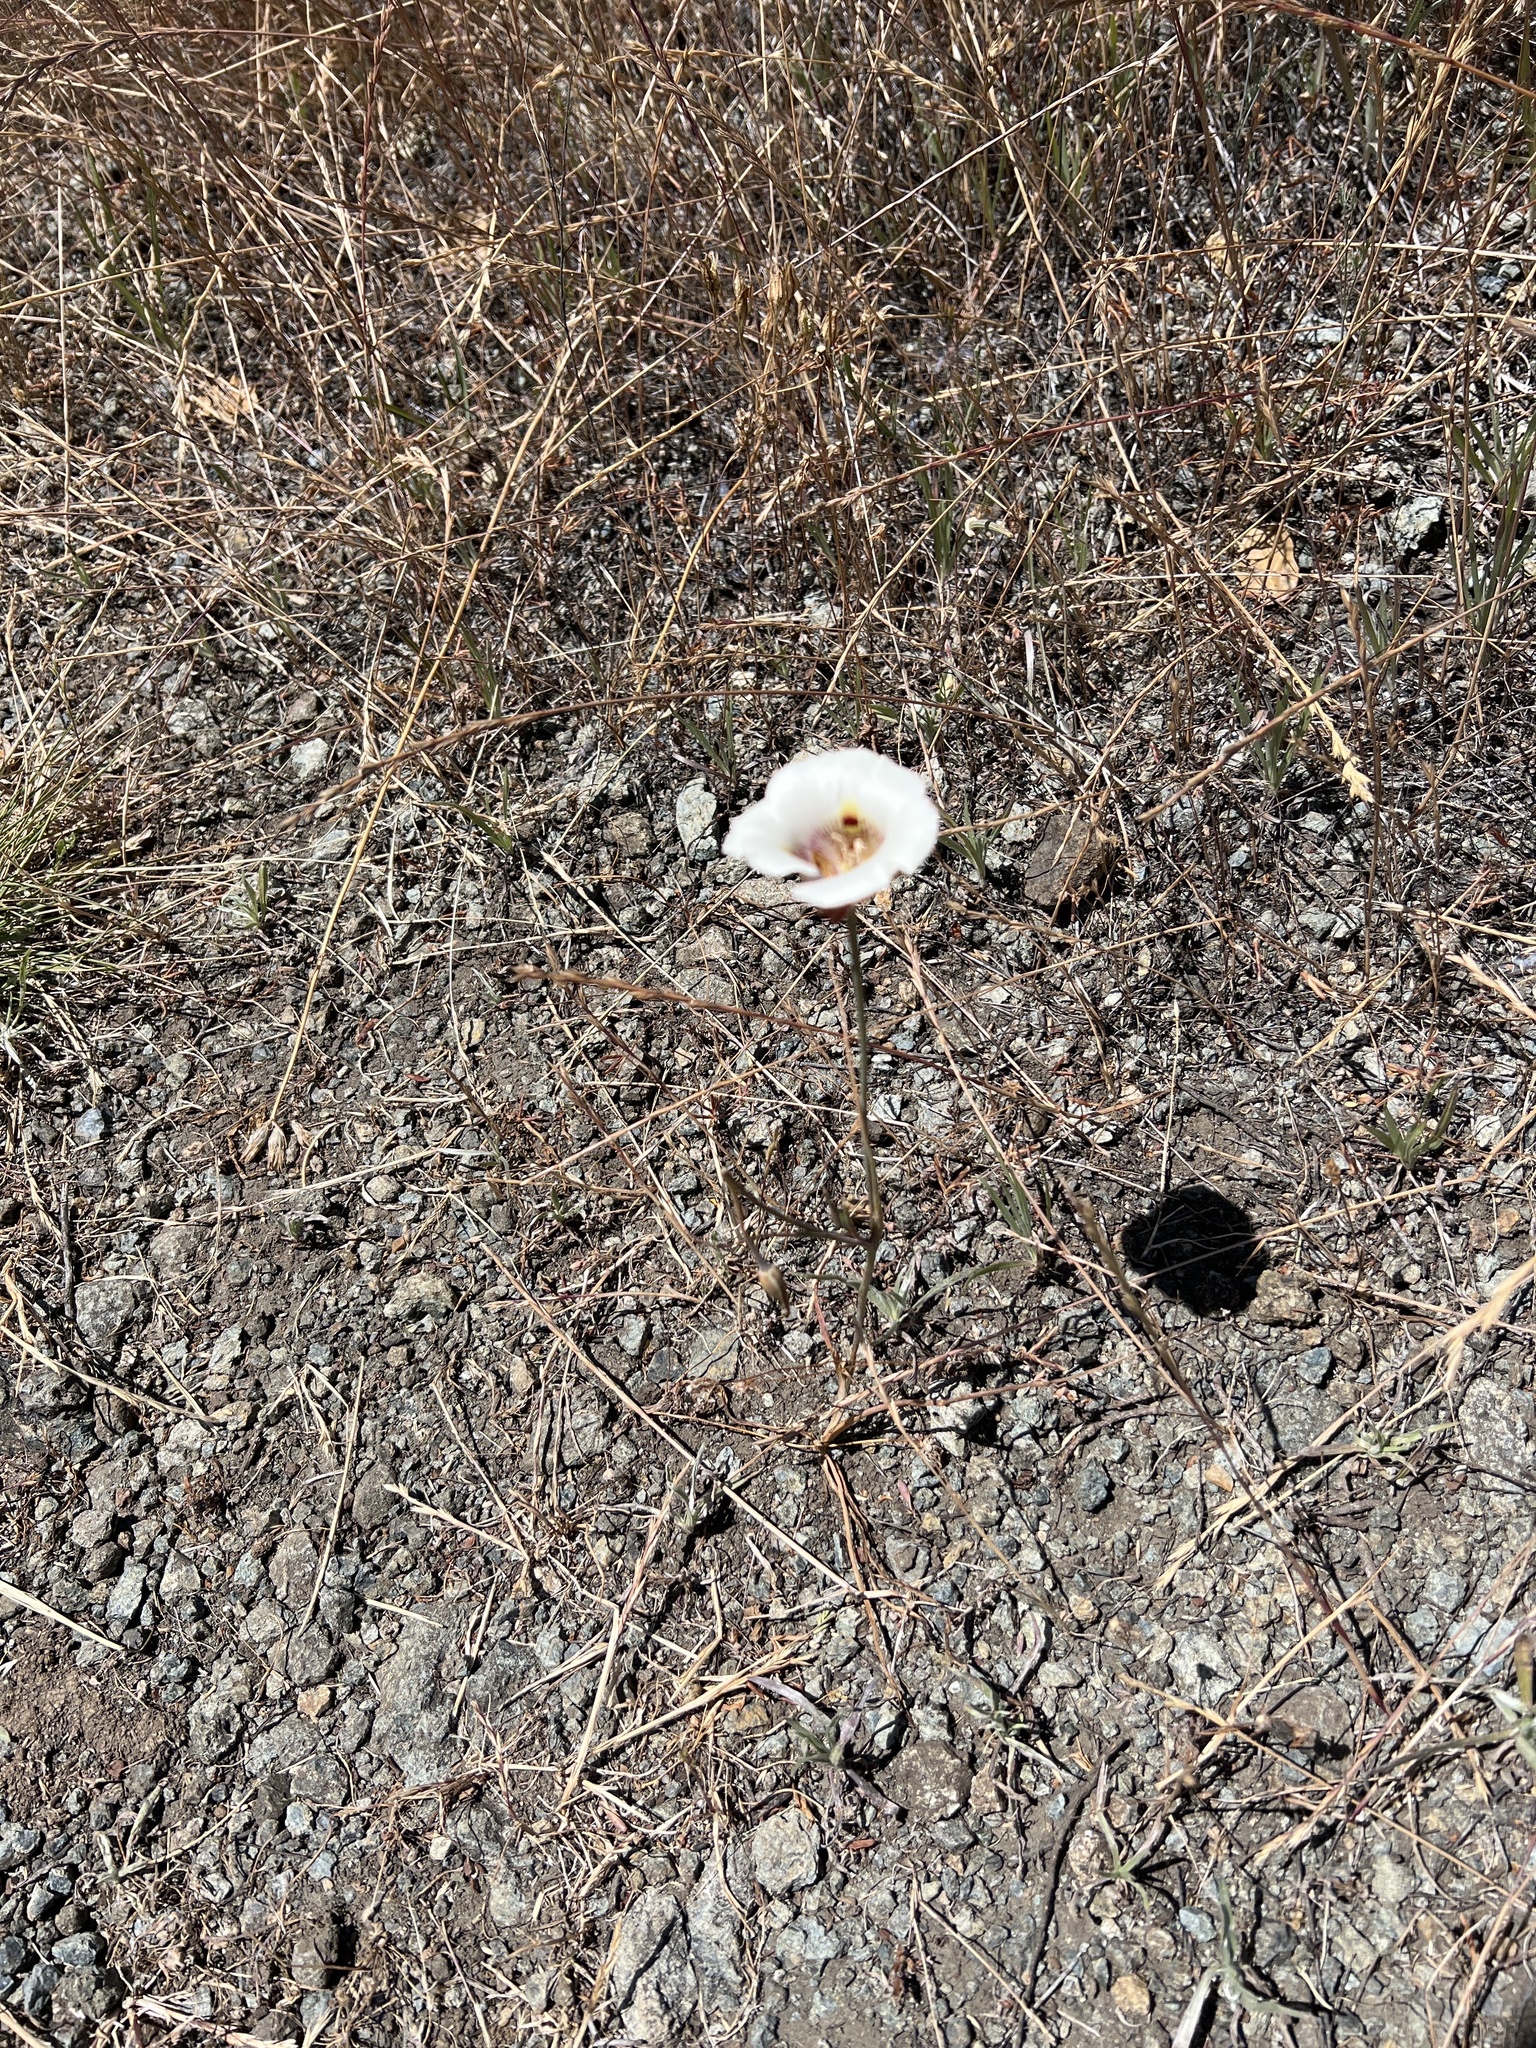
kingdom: Plantae
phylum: Tracheophyta
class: Liliopsida
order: Liliales
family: Liliaceae
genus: Calochortus
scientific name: Calochortus argillosus
